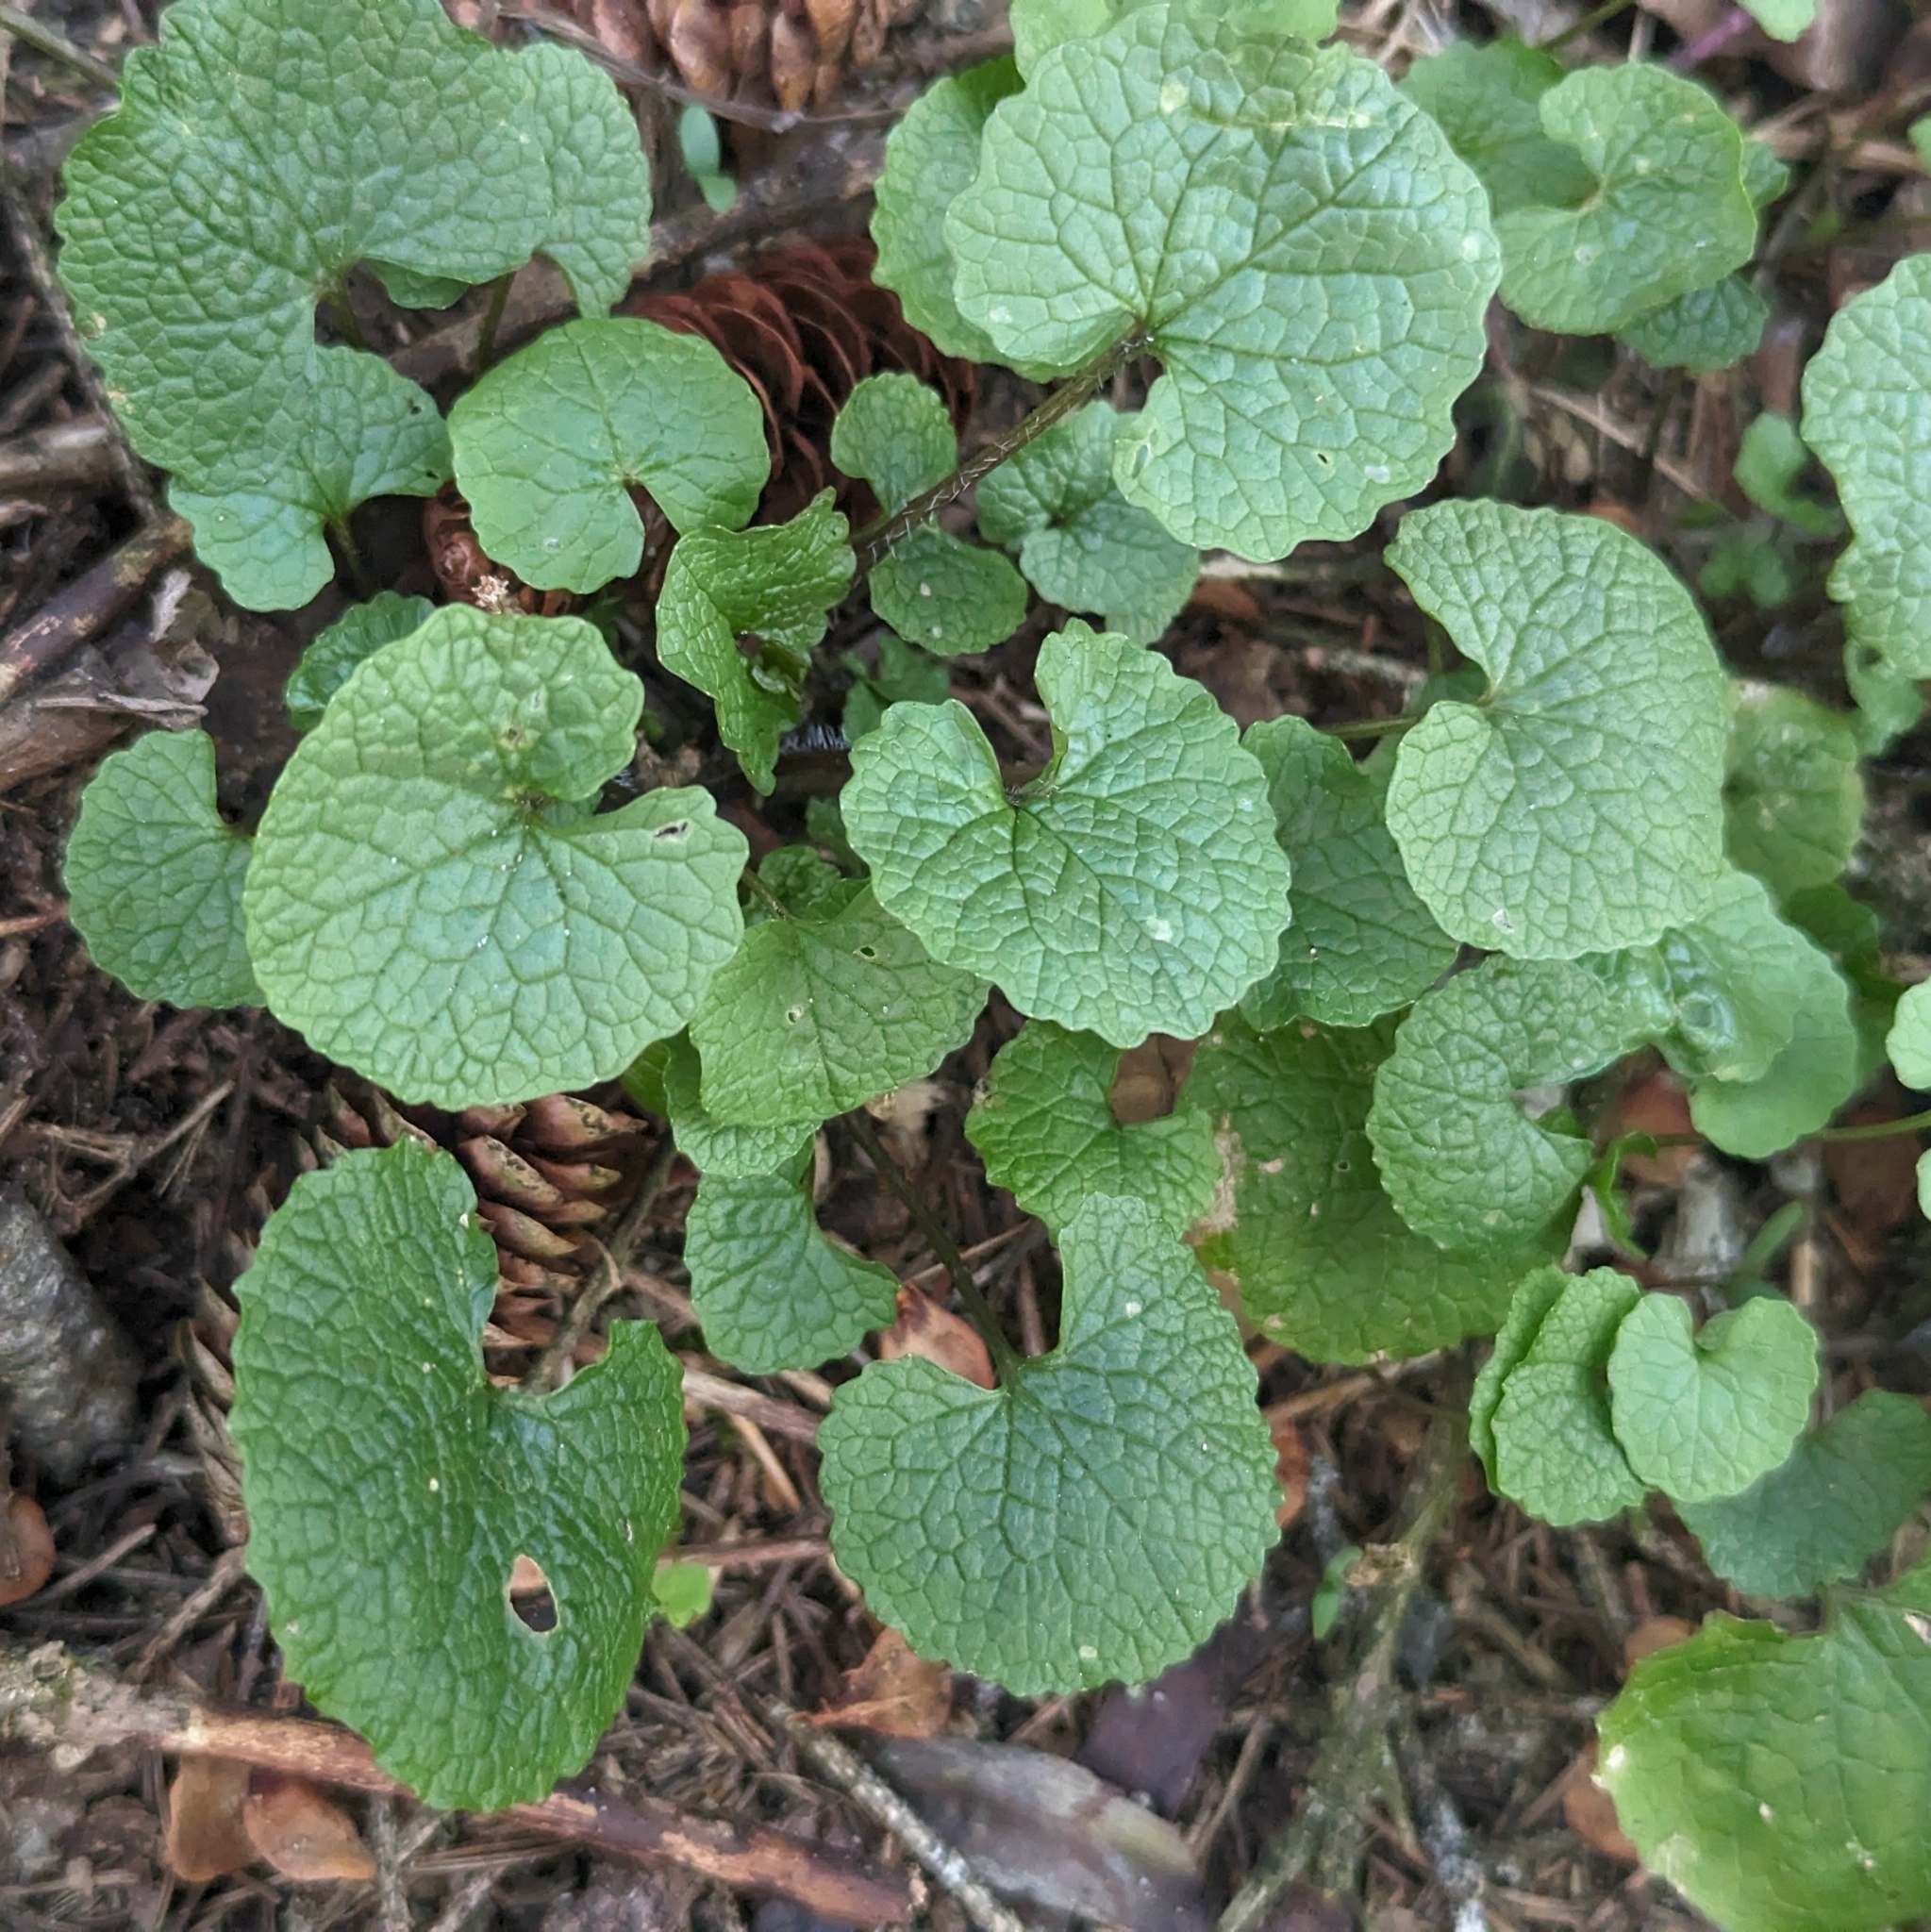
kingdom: Plantae
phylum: Tracheophyta
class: Magnoliopsida
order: Brassicales
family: Brassicaceae
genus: Alliaria
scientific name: Alliaria petiolata
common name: Garlic mustard
